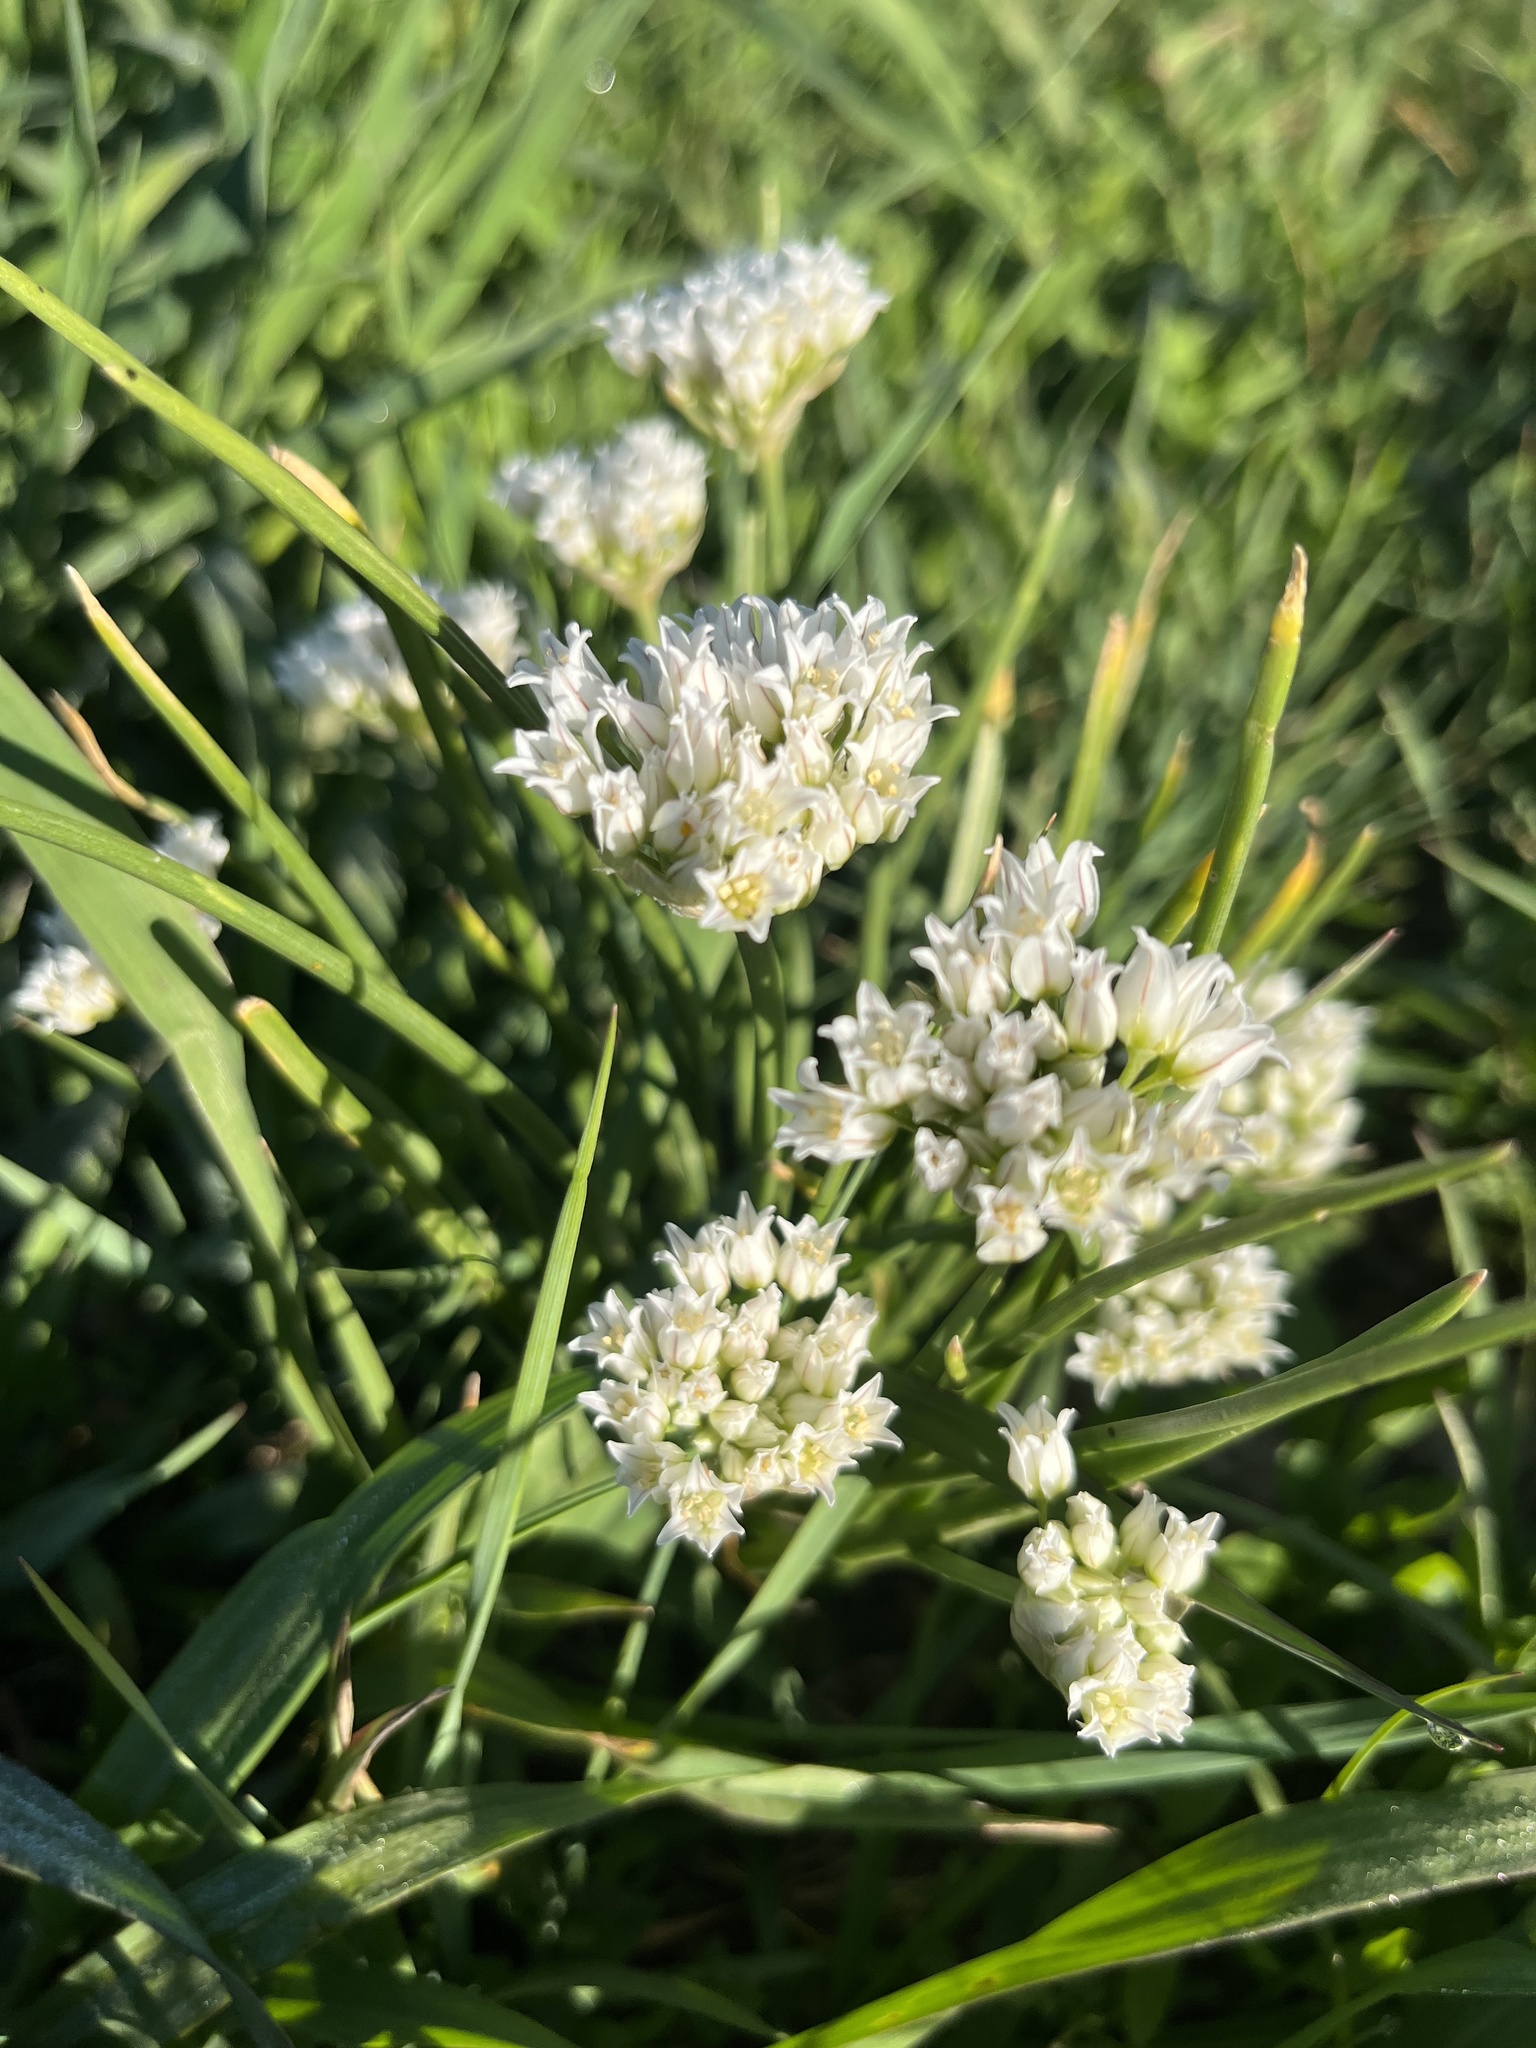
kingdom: Plantae
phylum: Tracheophyta
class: Liliopsida
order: Asparagales
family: Amaryllidaceae
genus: Allium
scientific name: Allium textile
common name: Prairie onion
